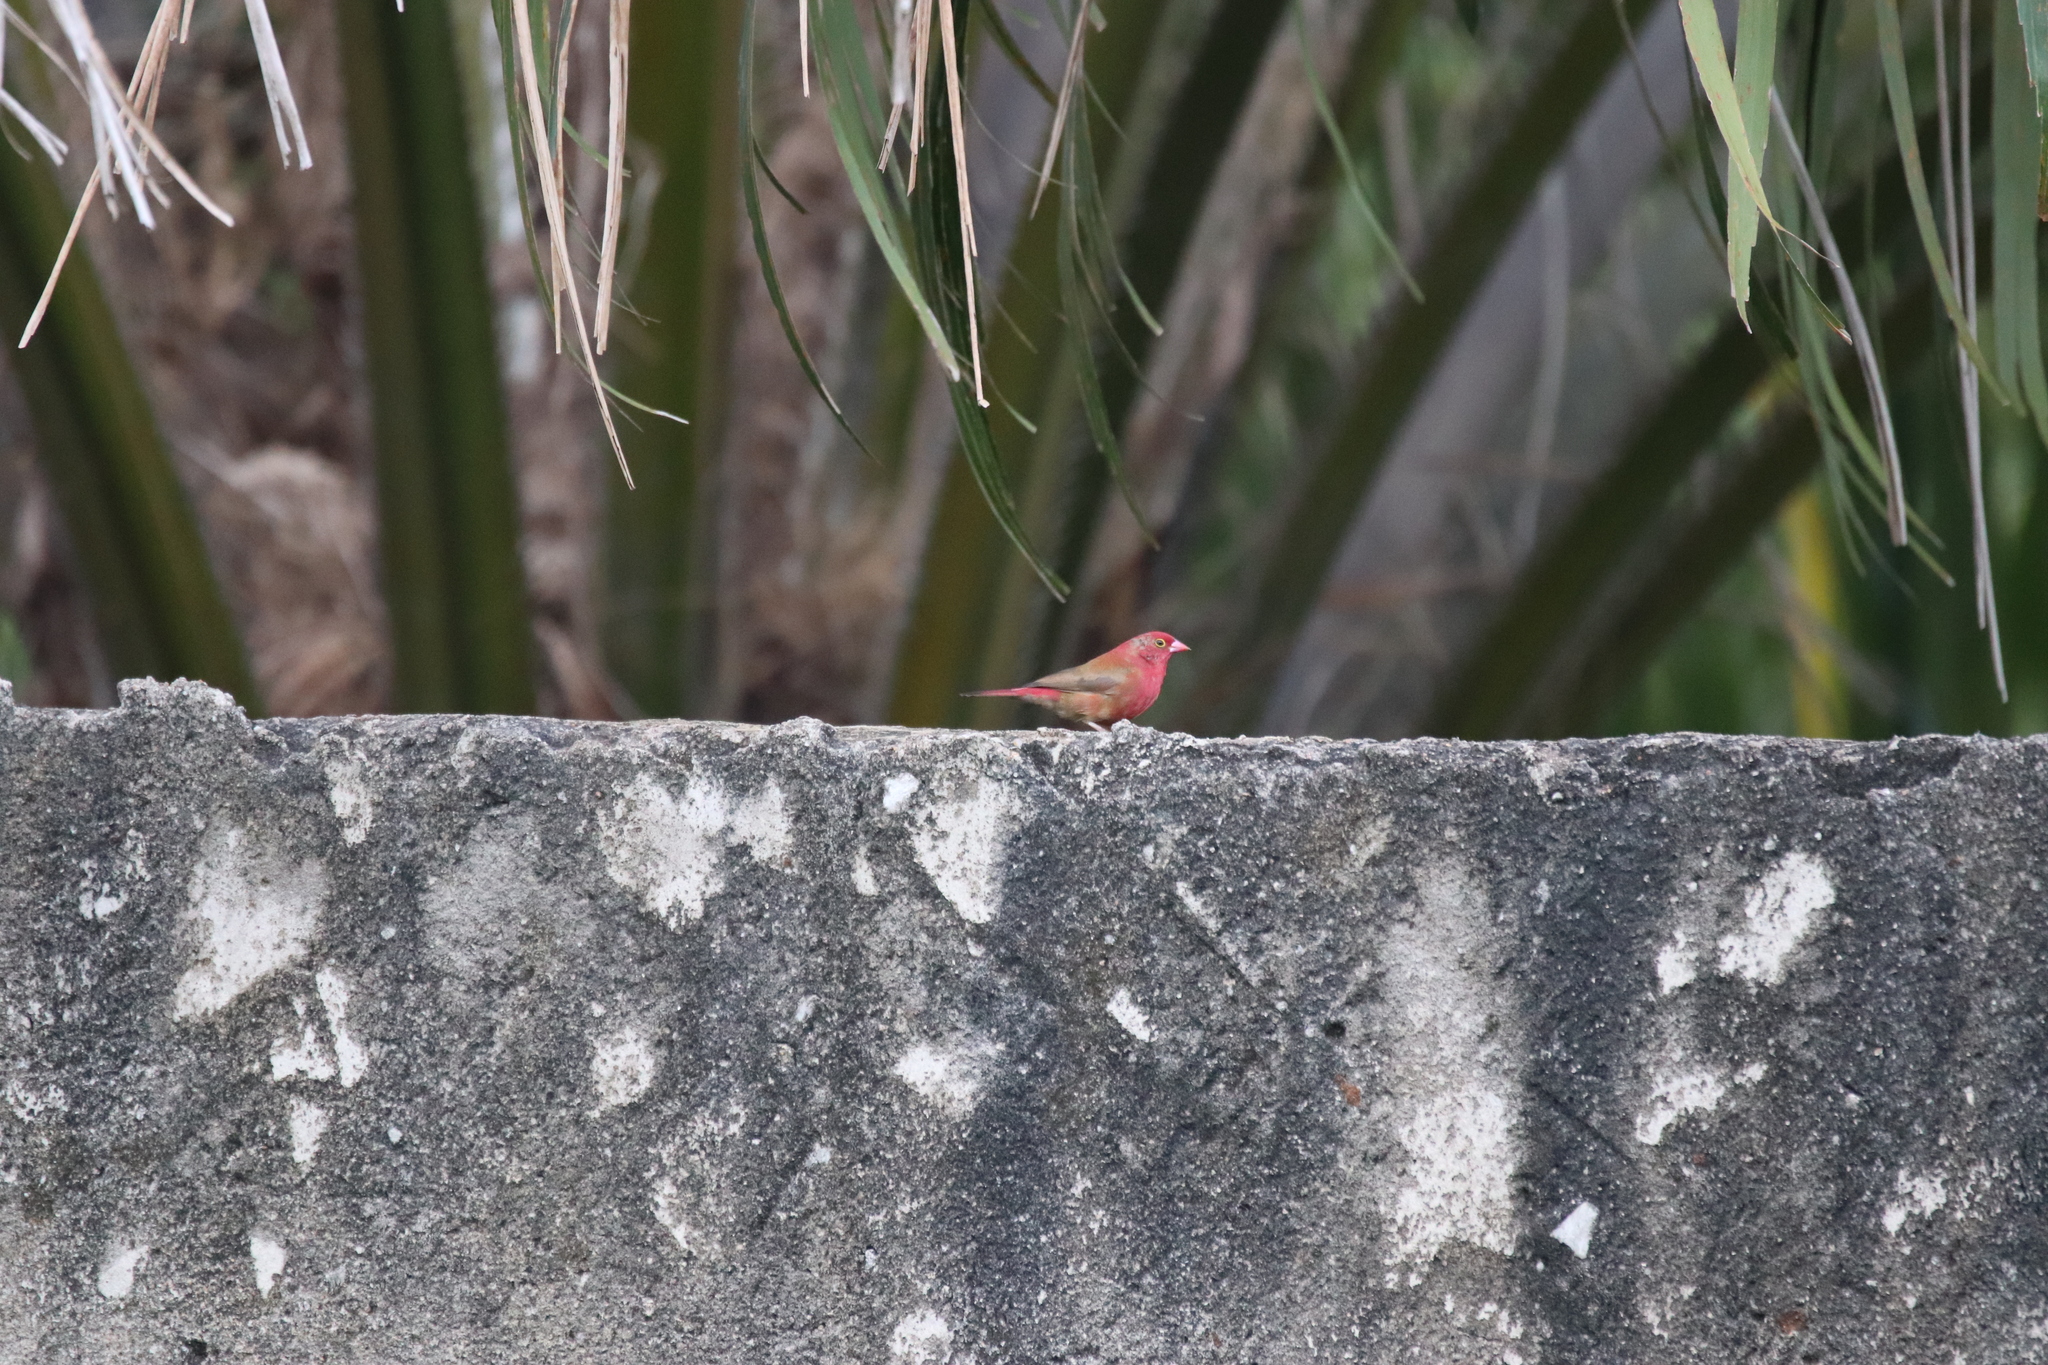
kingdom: Animalia
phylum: Chordata
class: Aves
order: Passeriformes
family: Estrildidae
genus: Lagonosticta
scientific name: Lagonosticta senegala
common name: Red-billed firefinch
